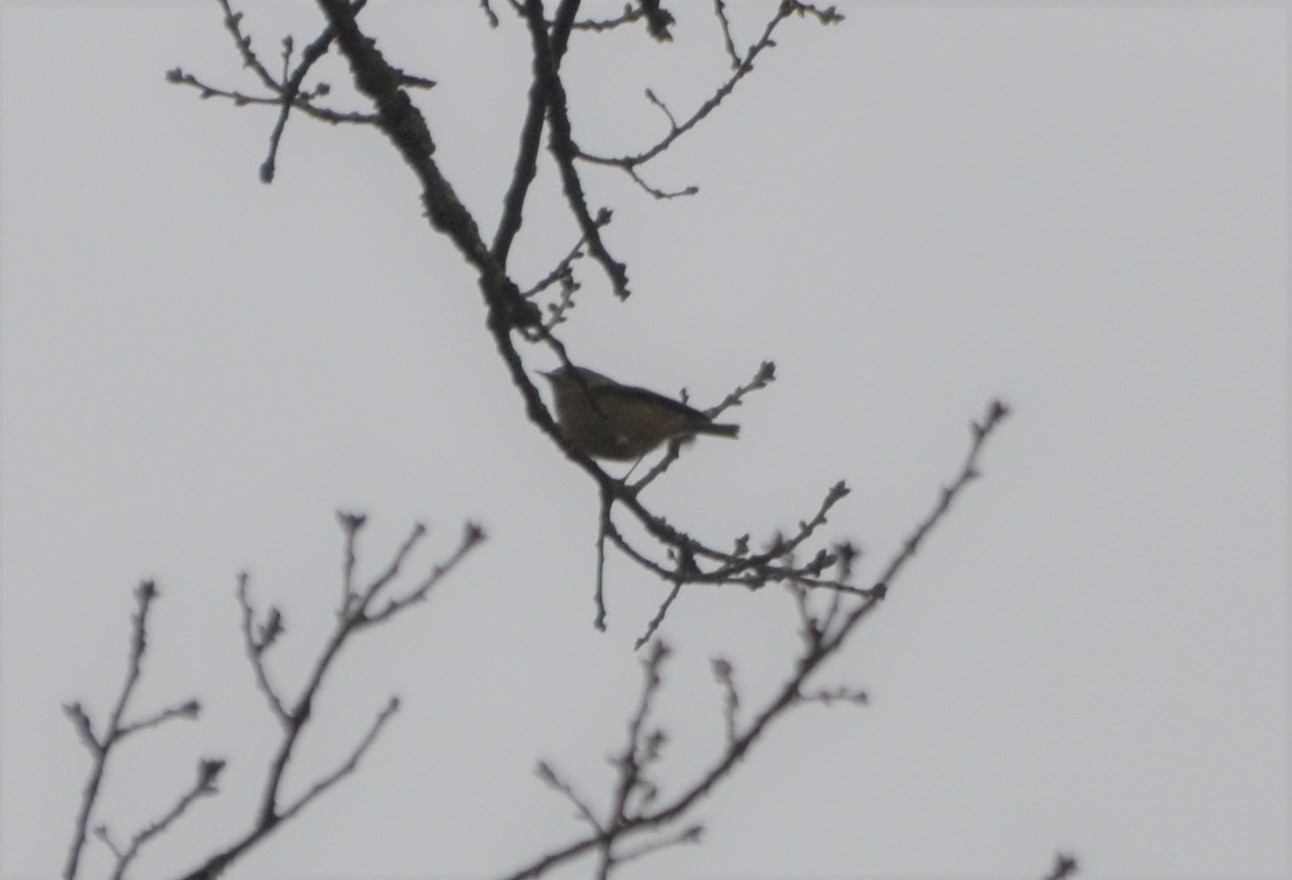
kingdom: Animalia
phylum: Chordata
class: Aves
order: Passeriformes
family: Regulidae
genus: Regulus
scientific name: Regulus regulus
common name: Goldcrest
